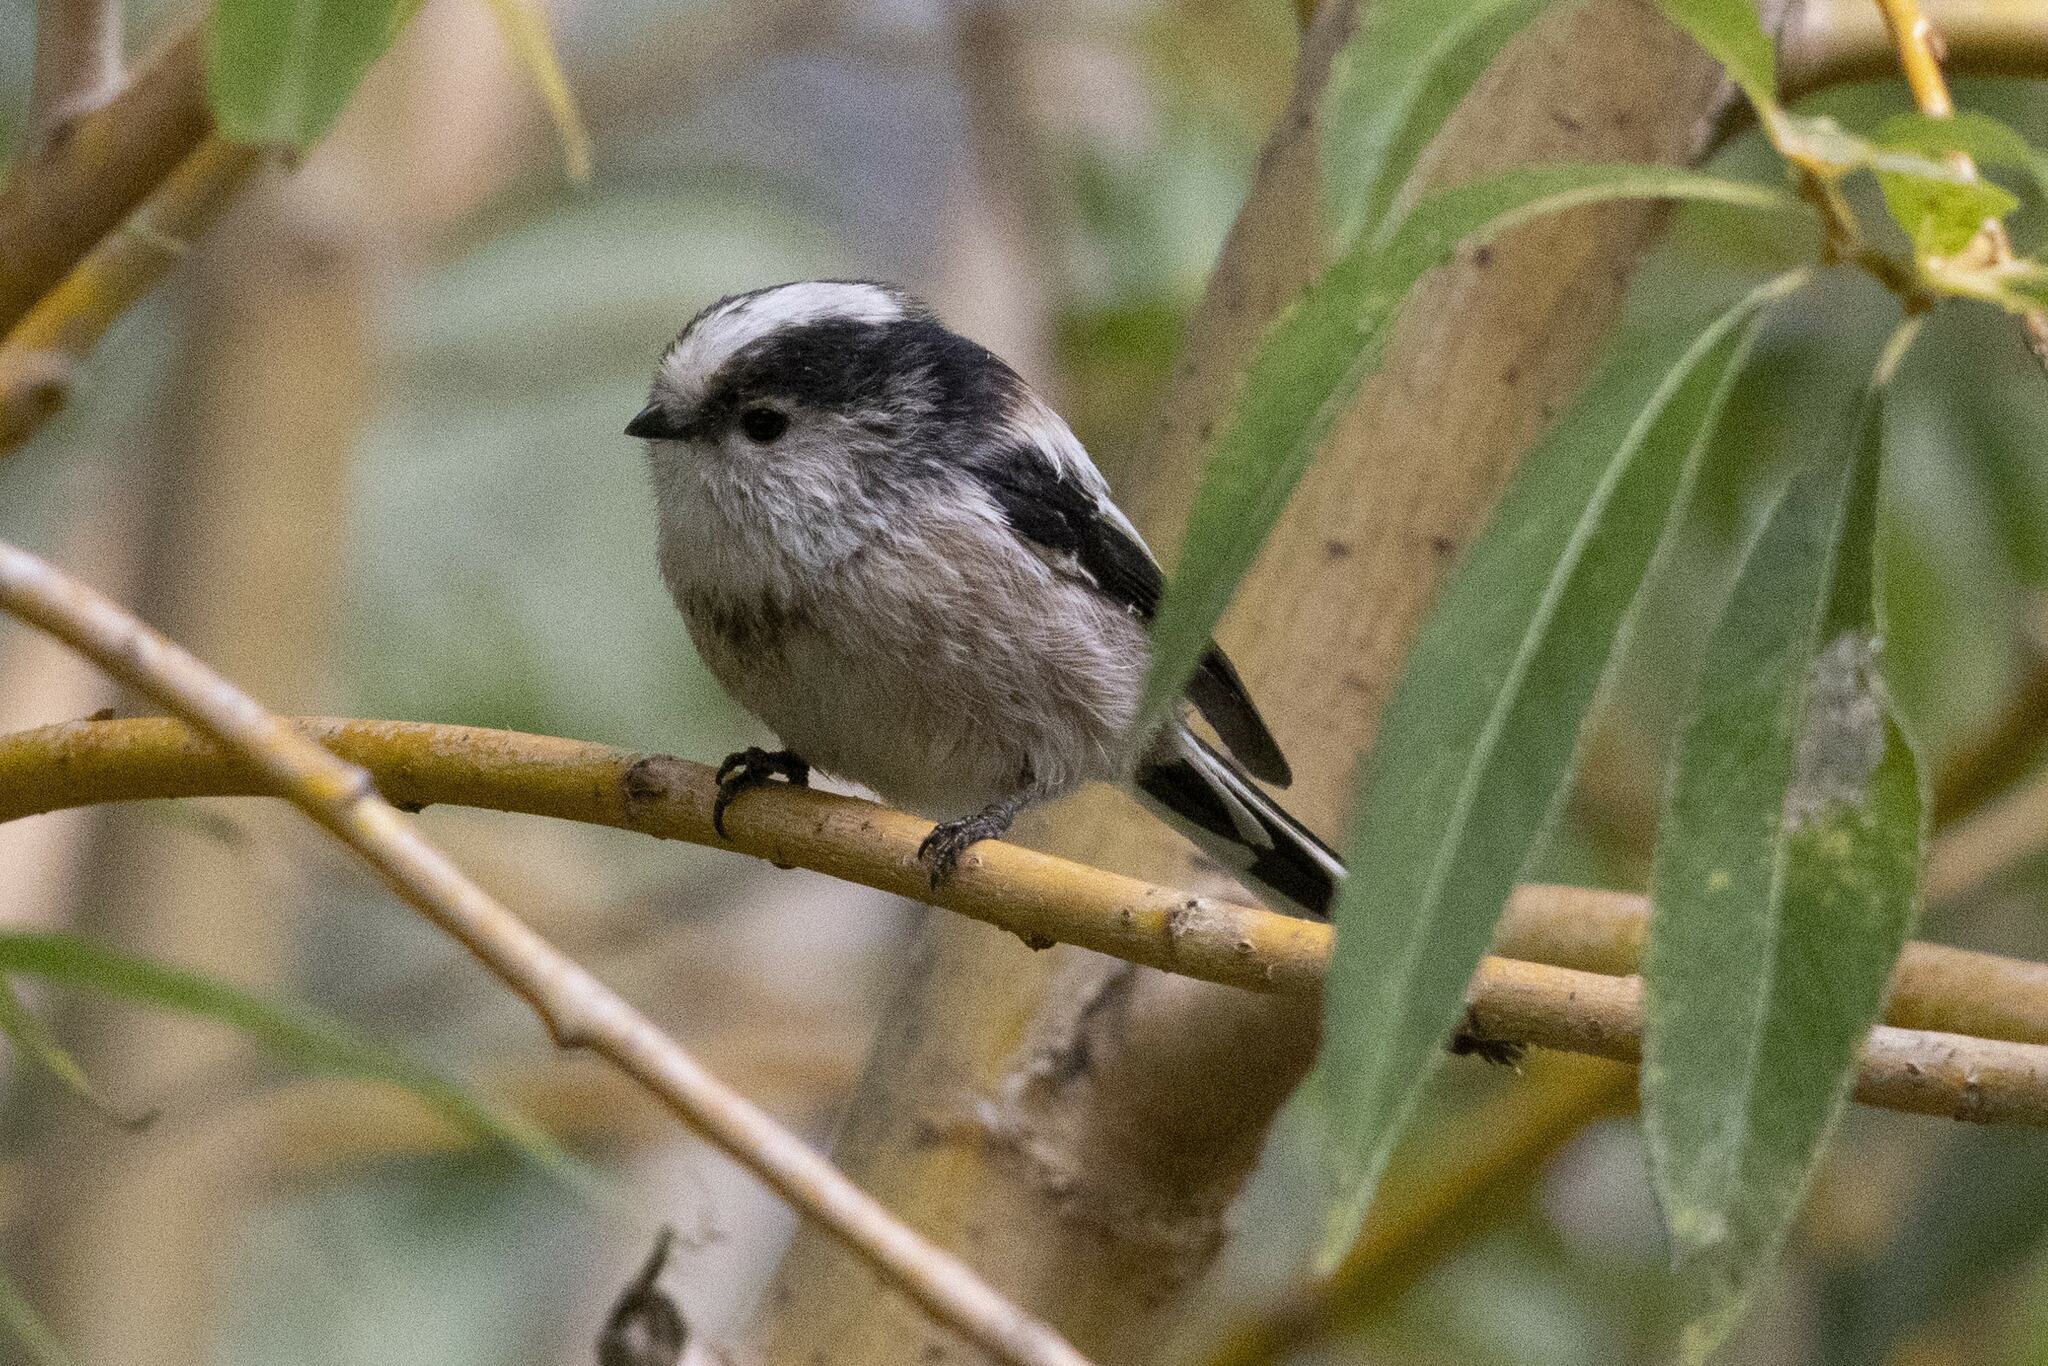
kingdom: Animalia
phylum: Chordata
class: Aves
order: Passeriformes
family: Aegithalidae
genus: Aegithalos
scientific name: Aegithalos caudatus
